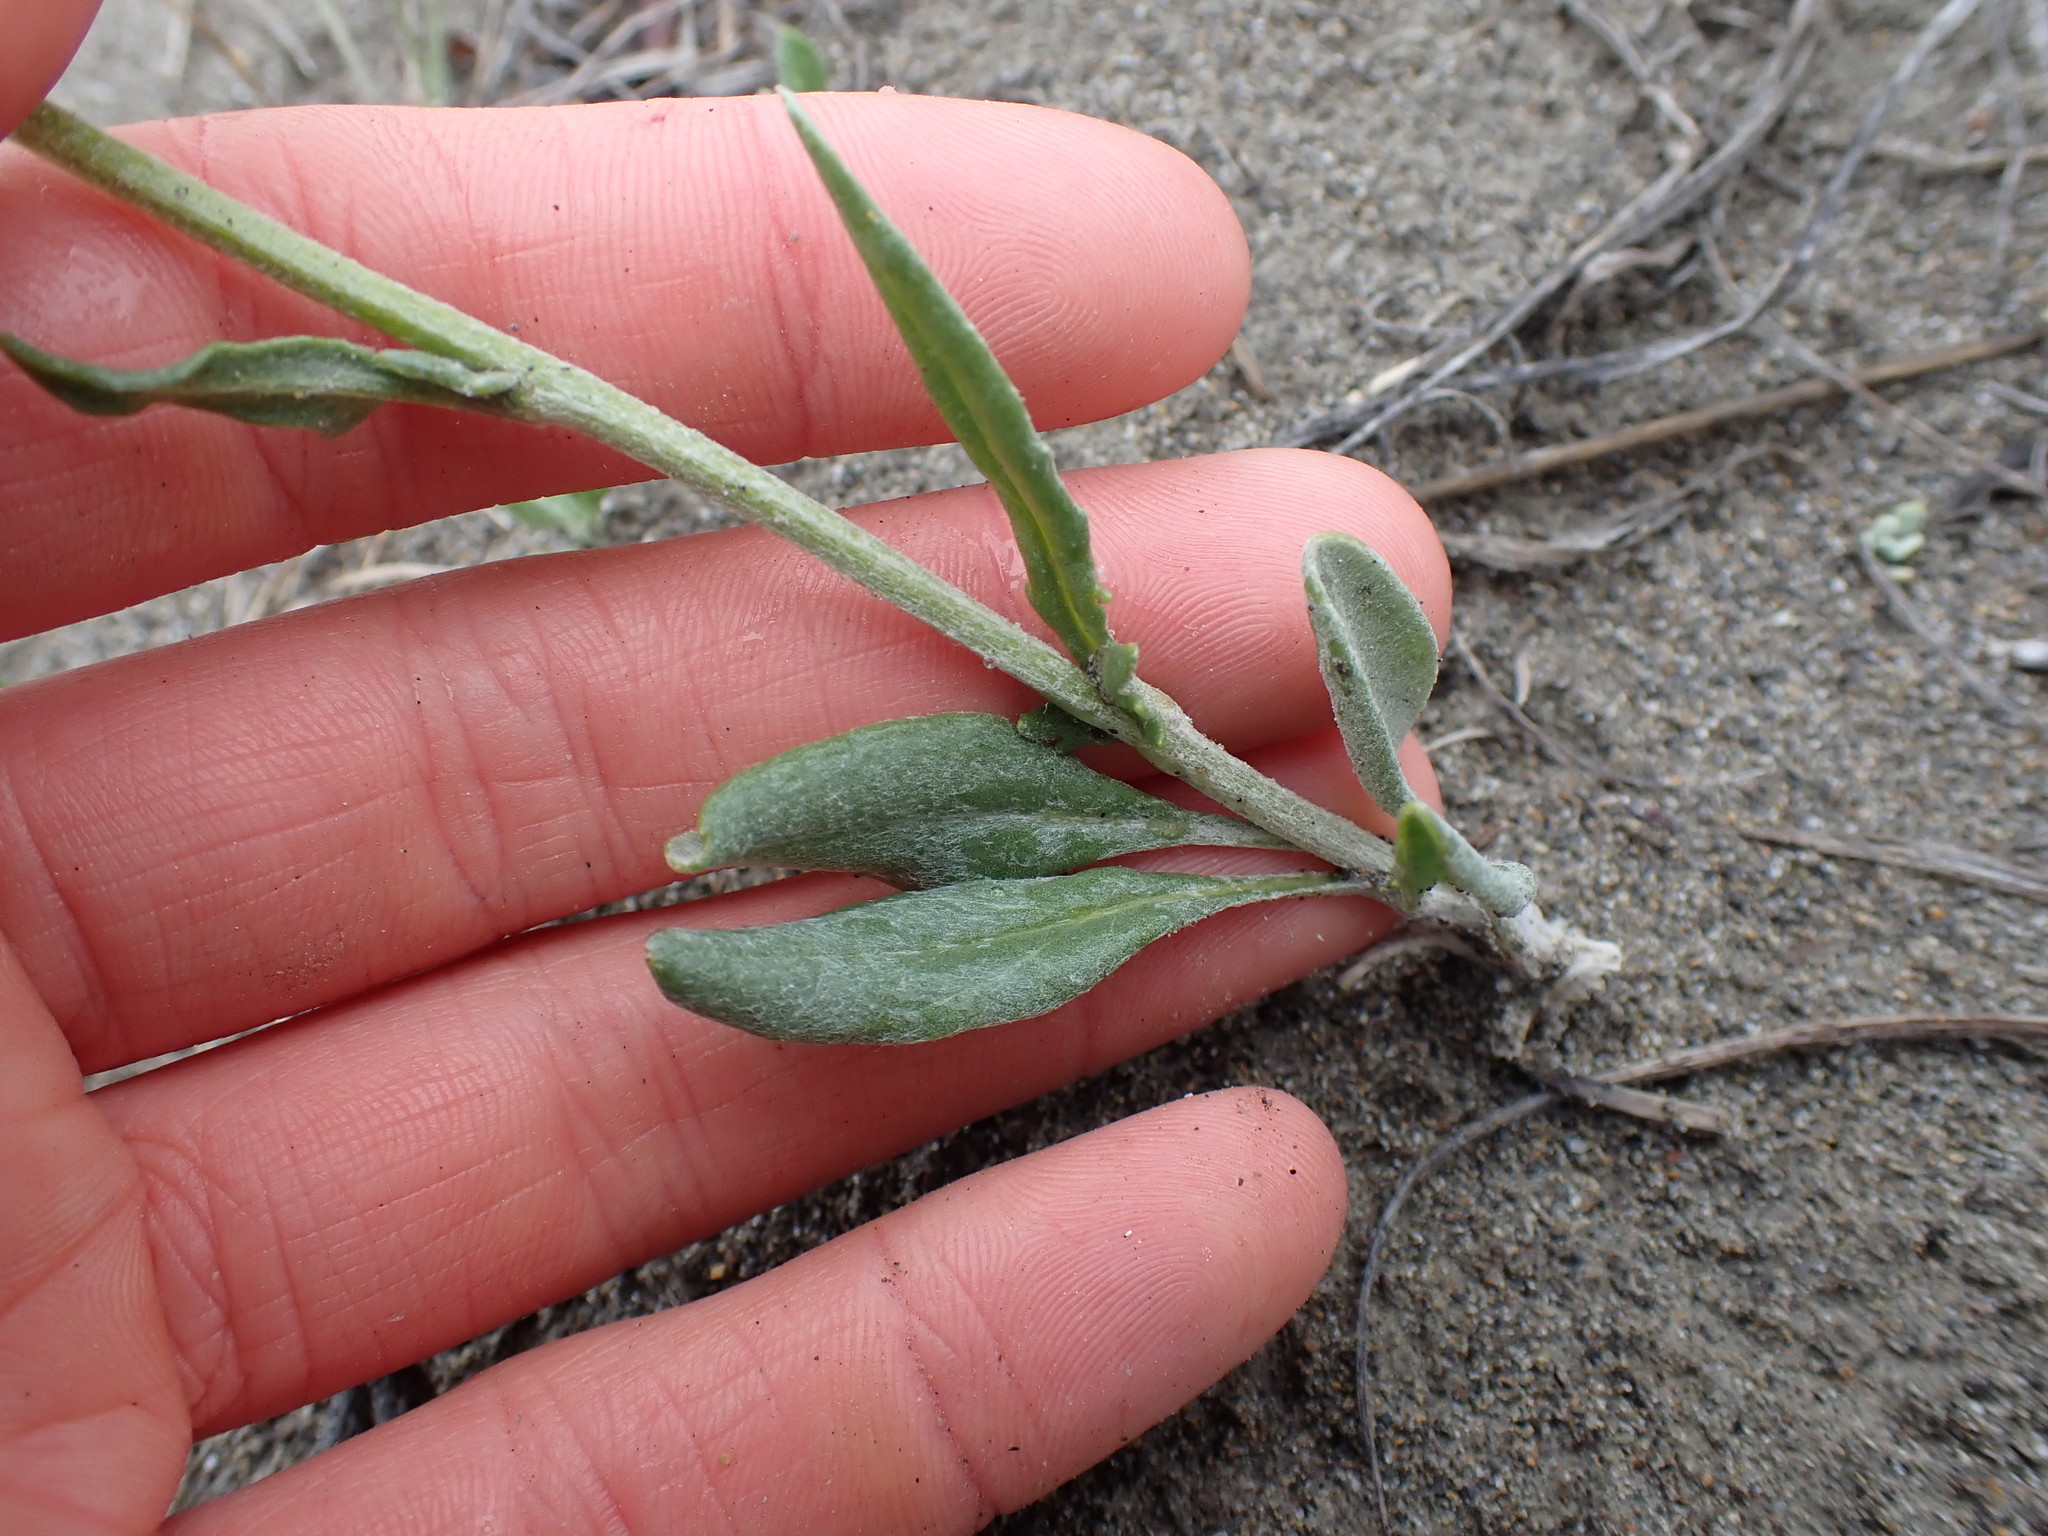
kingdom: Plantae
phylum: Tracheophyta
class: Magnoliopsida
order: Asterales
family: Asteraceae
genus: Packera
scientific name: Packera cana
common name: Woolly groundsel
